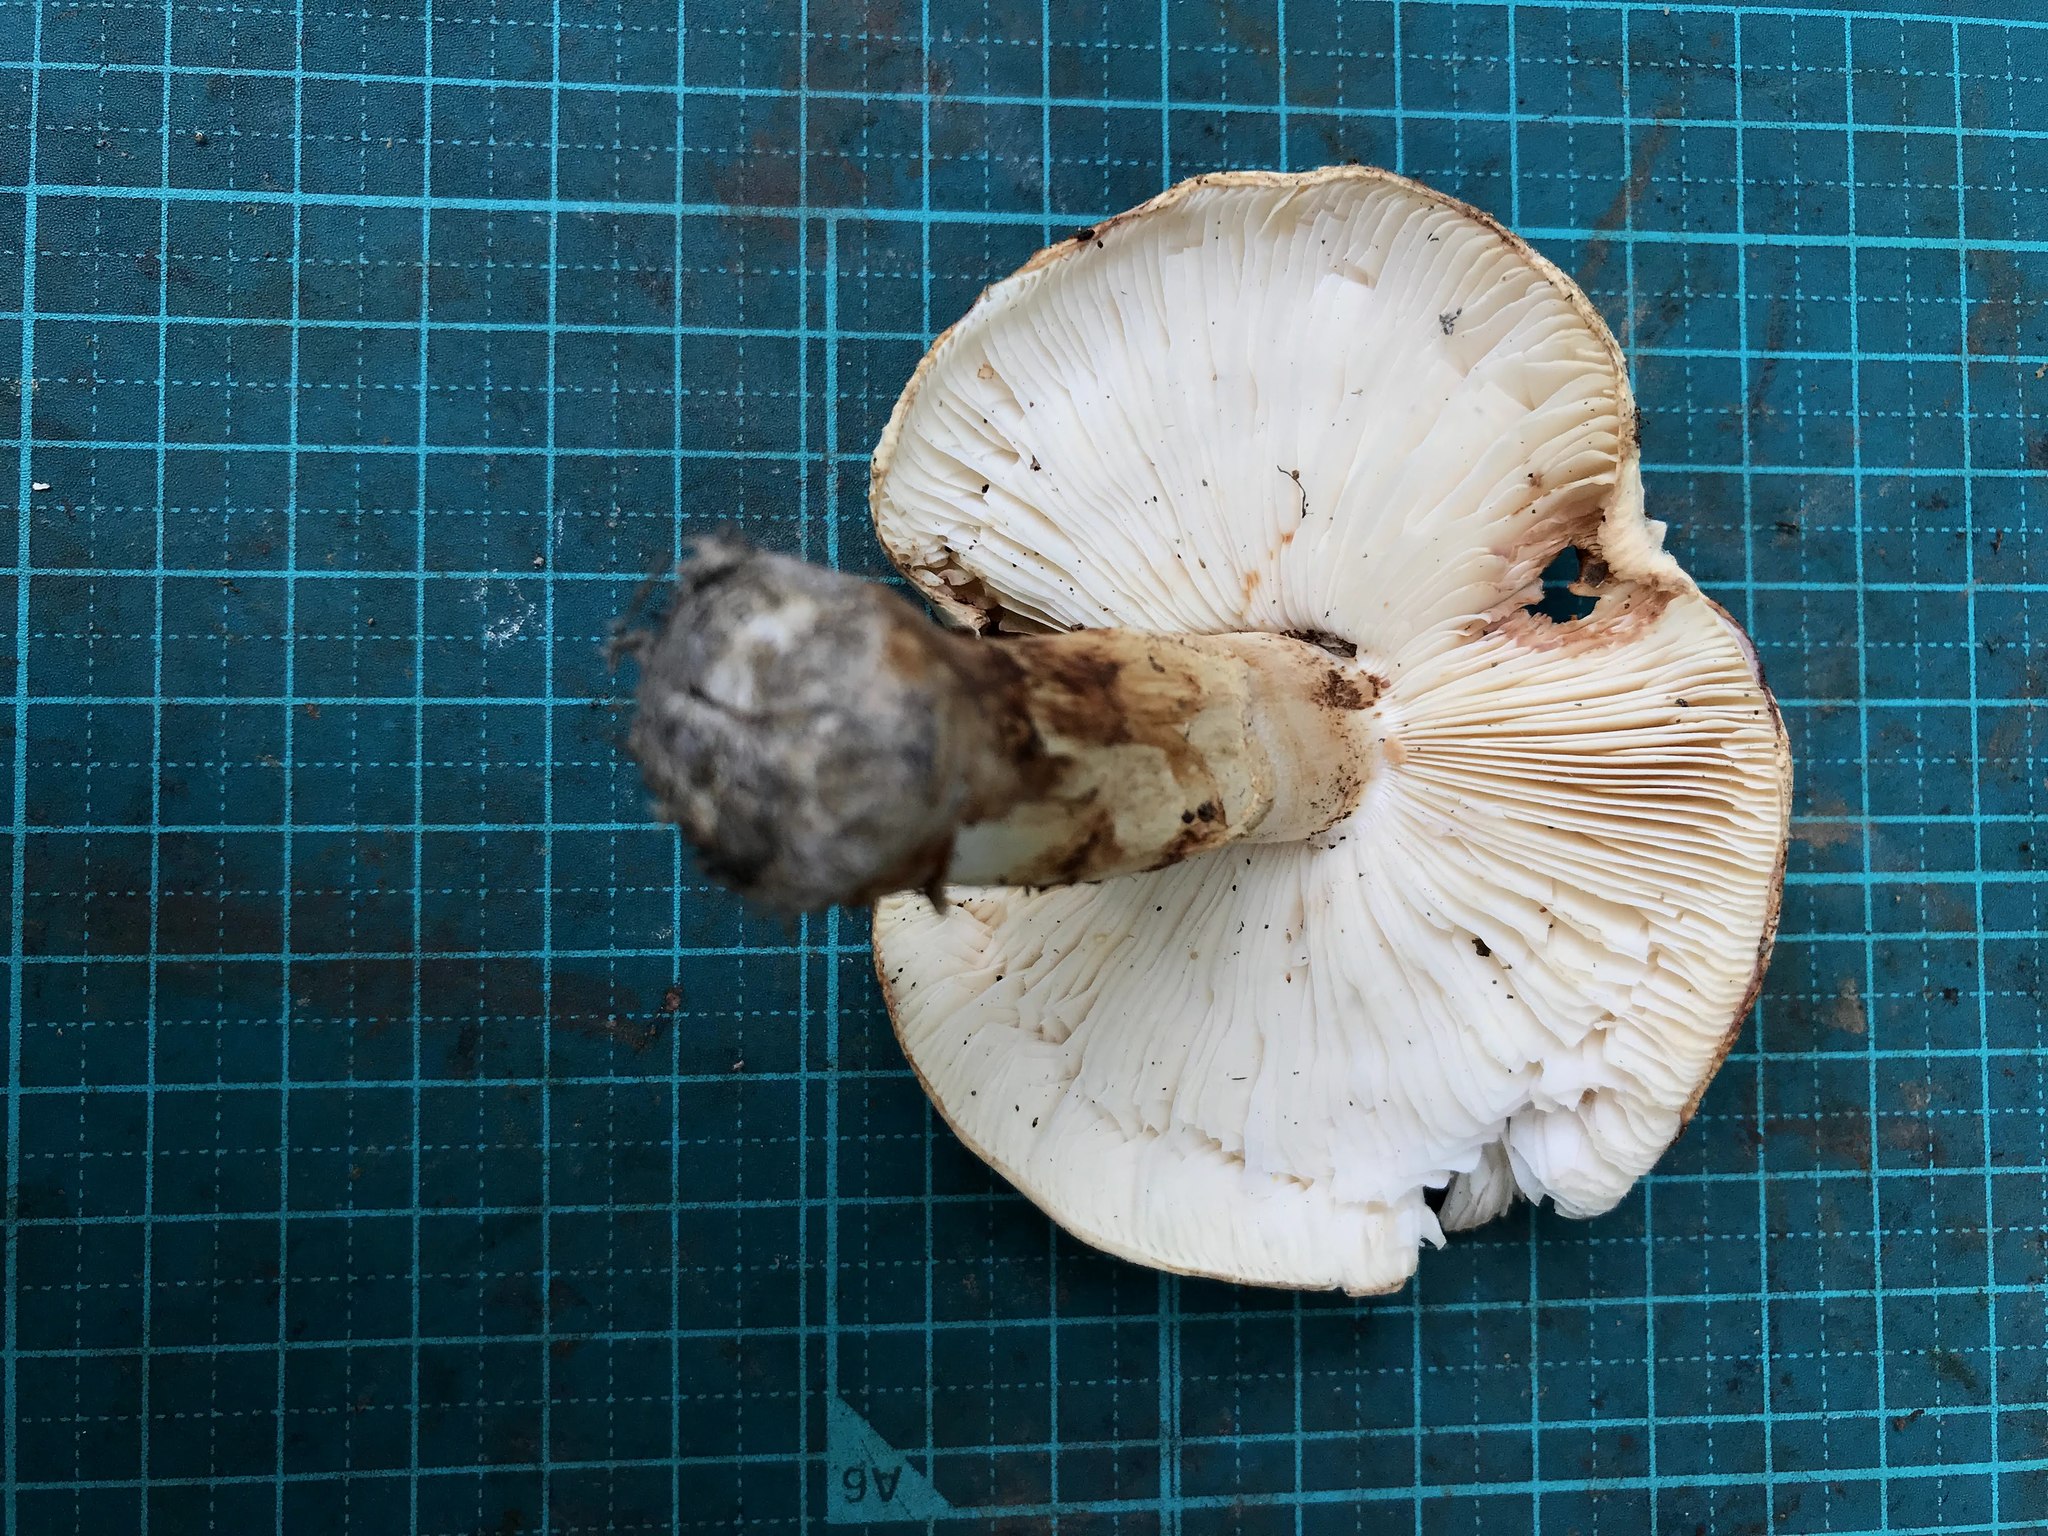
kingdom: Fungi
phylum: Basidiomycota
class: Agaricomycetes
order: Agaricales
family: Tricholomataceae
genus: Tricholoma
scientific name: Tricholoma bakamatsutake
